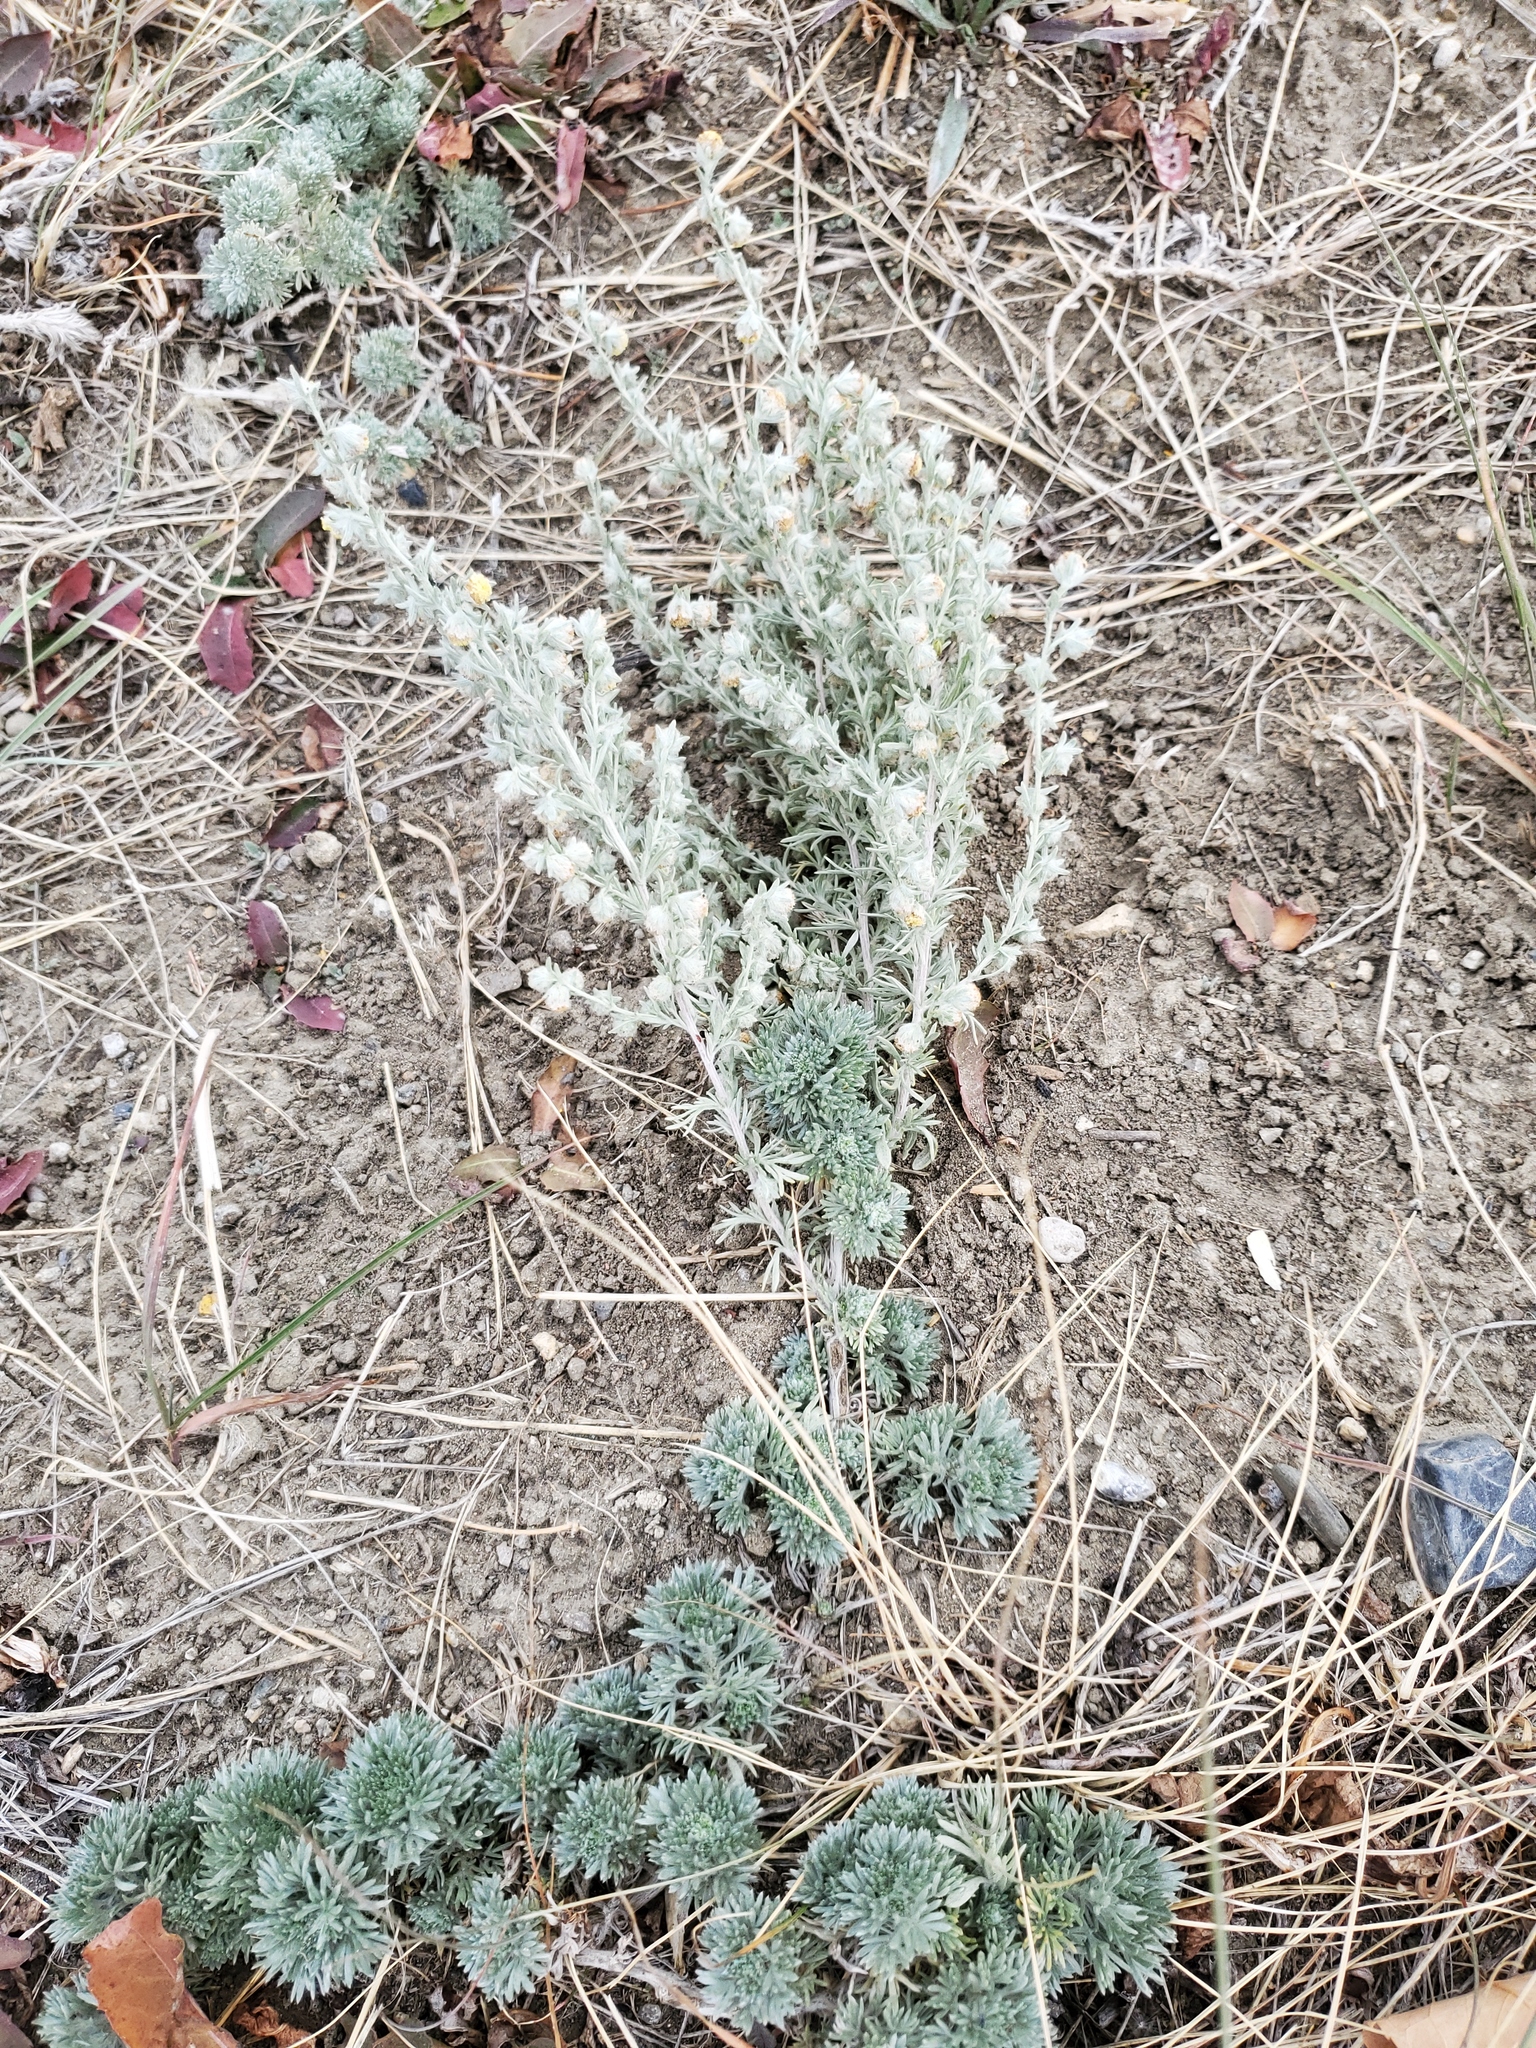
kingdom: Plantae
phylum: Tracheophyta
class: Magnoliopsida
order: Asterales
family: Asteraceae
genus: Artemisia
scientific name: Artemisia frigida
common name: Prairie sagewort
